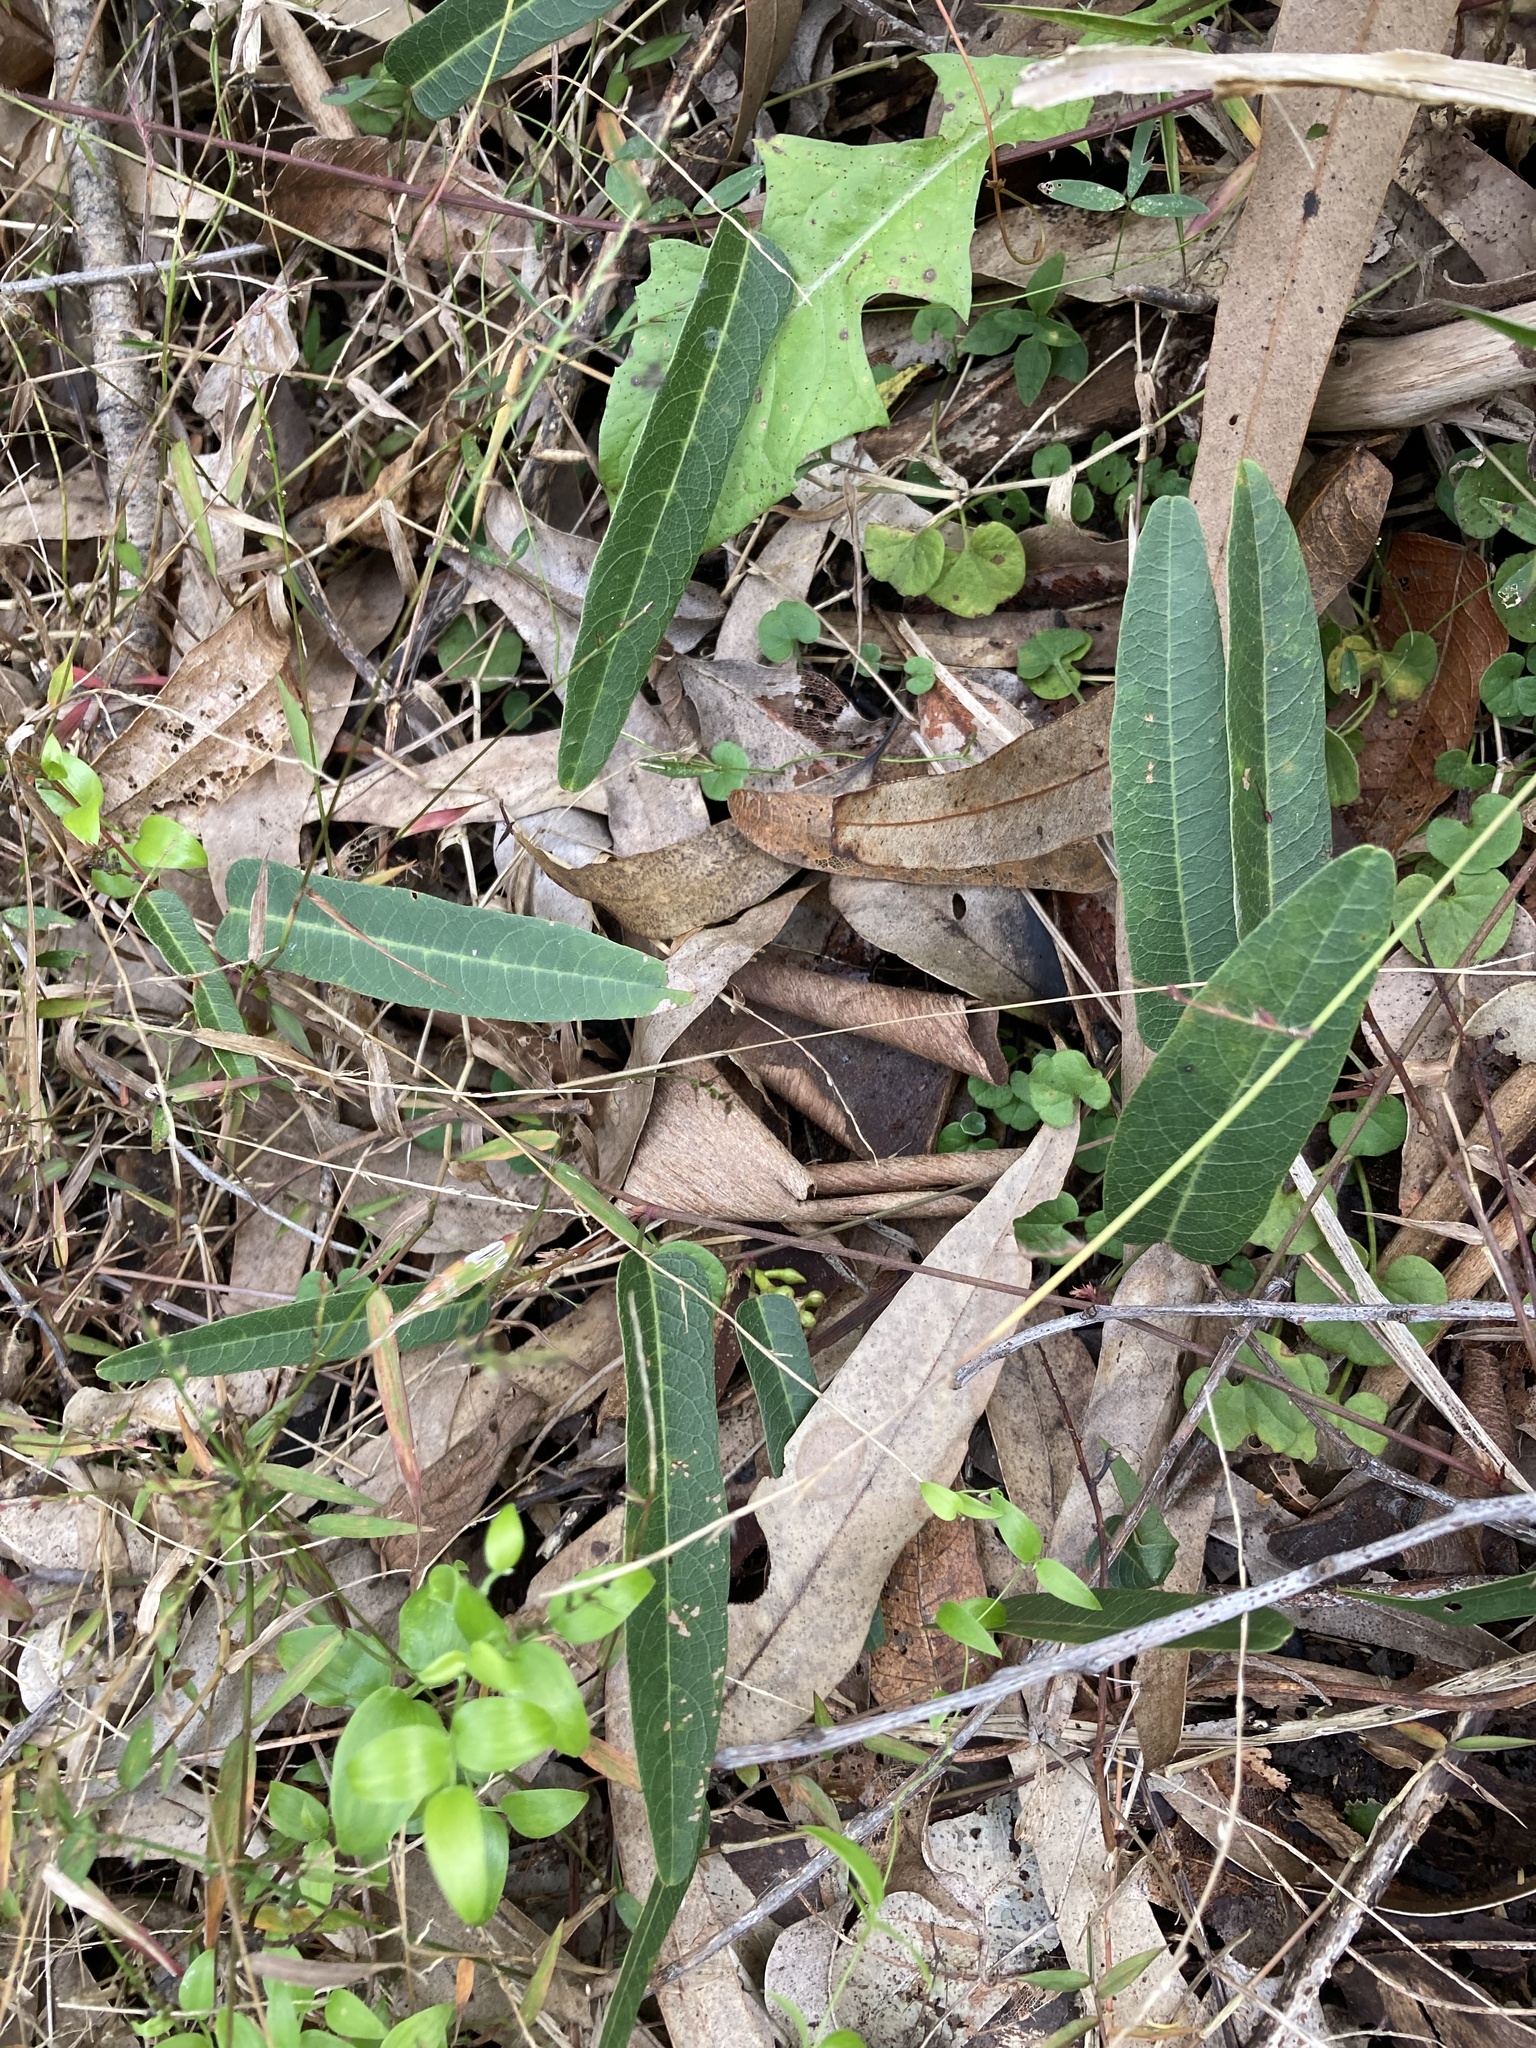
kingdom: Plantae
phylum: Tracheophyta
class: Magnoliopsida
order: Fabales
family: Fabaceae
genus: Hardenbergia
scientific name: Hardenbergia violacea
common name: Coral-pea
